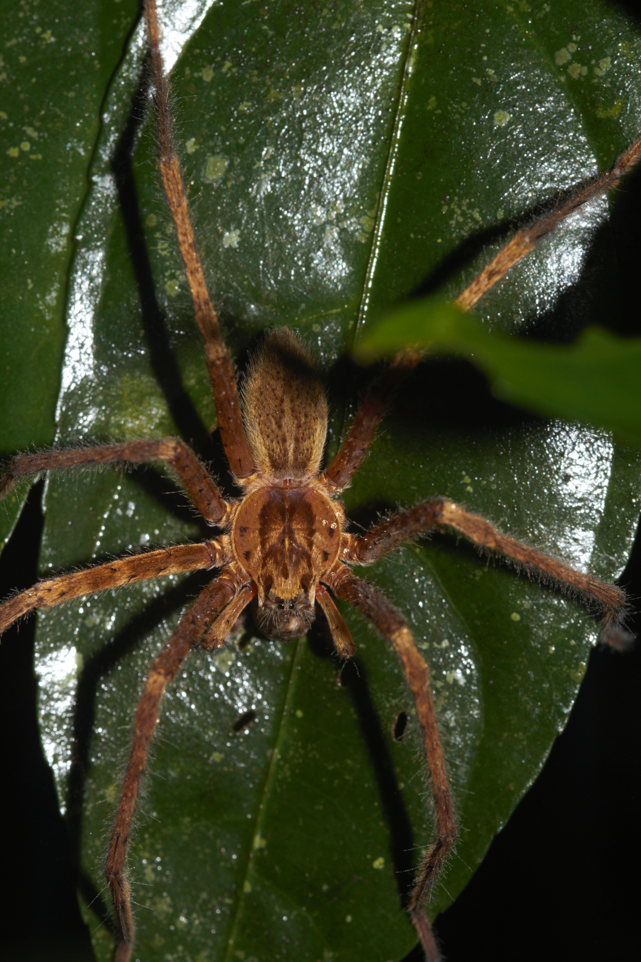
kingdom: Animalia
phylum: Arthropoda
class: Arachnida
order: Araneae
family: Trechaleidae
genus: Cupiennius
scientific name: Cupiennius bimaculatus
